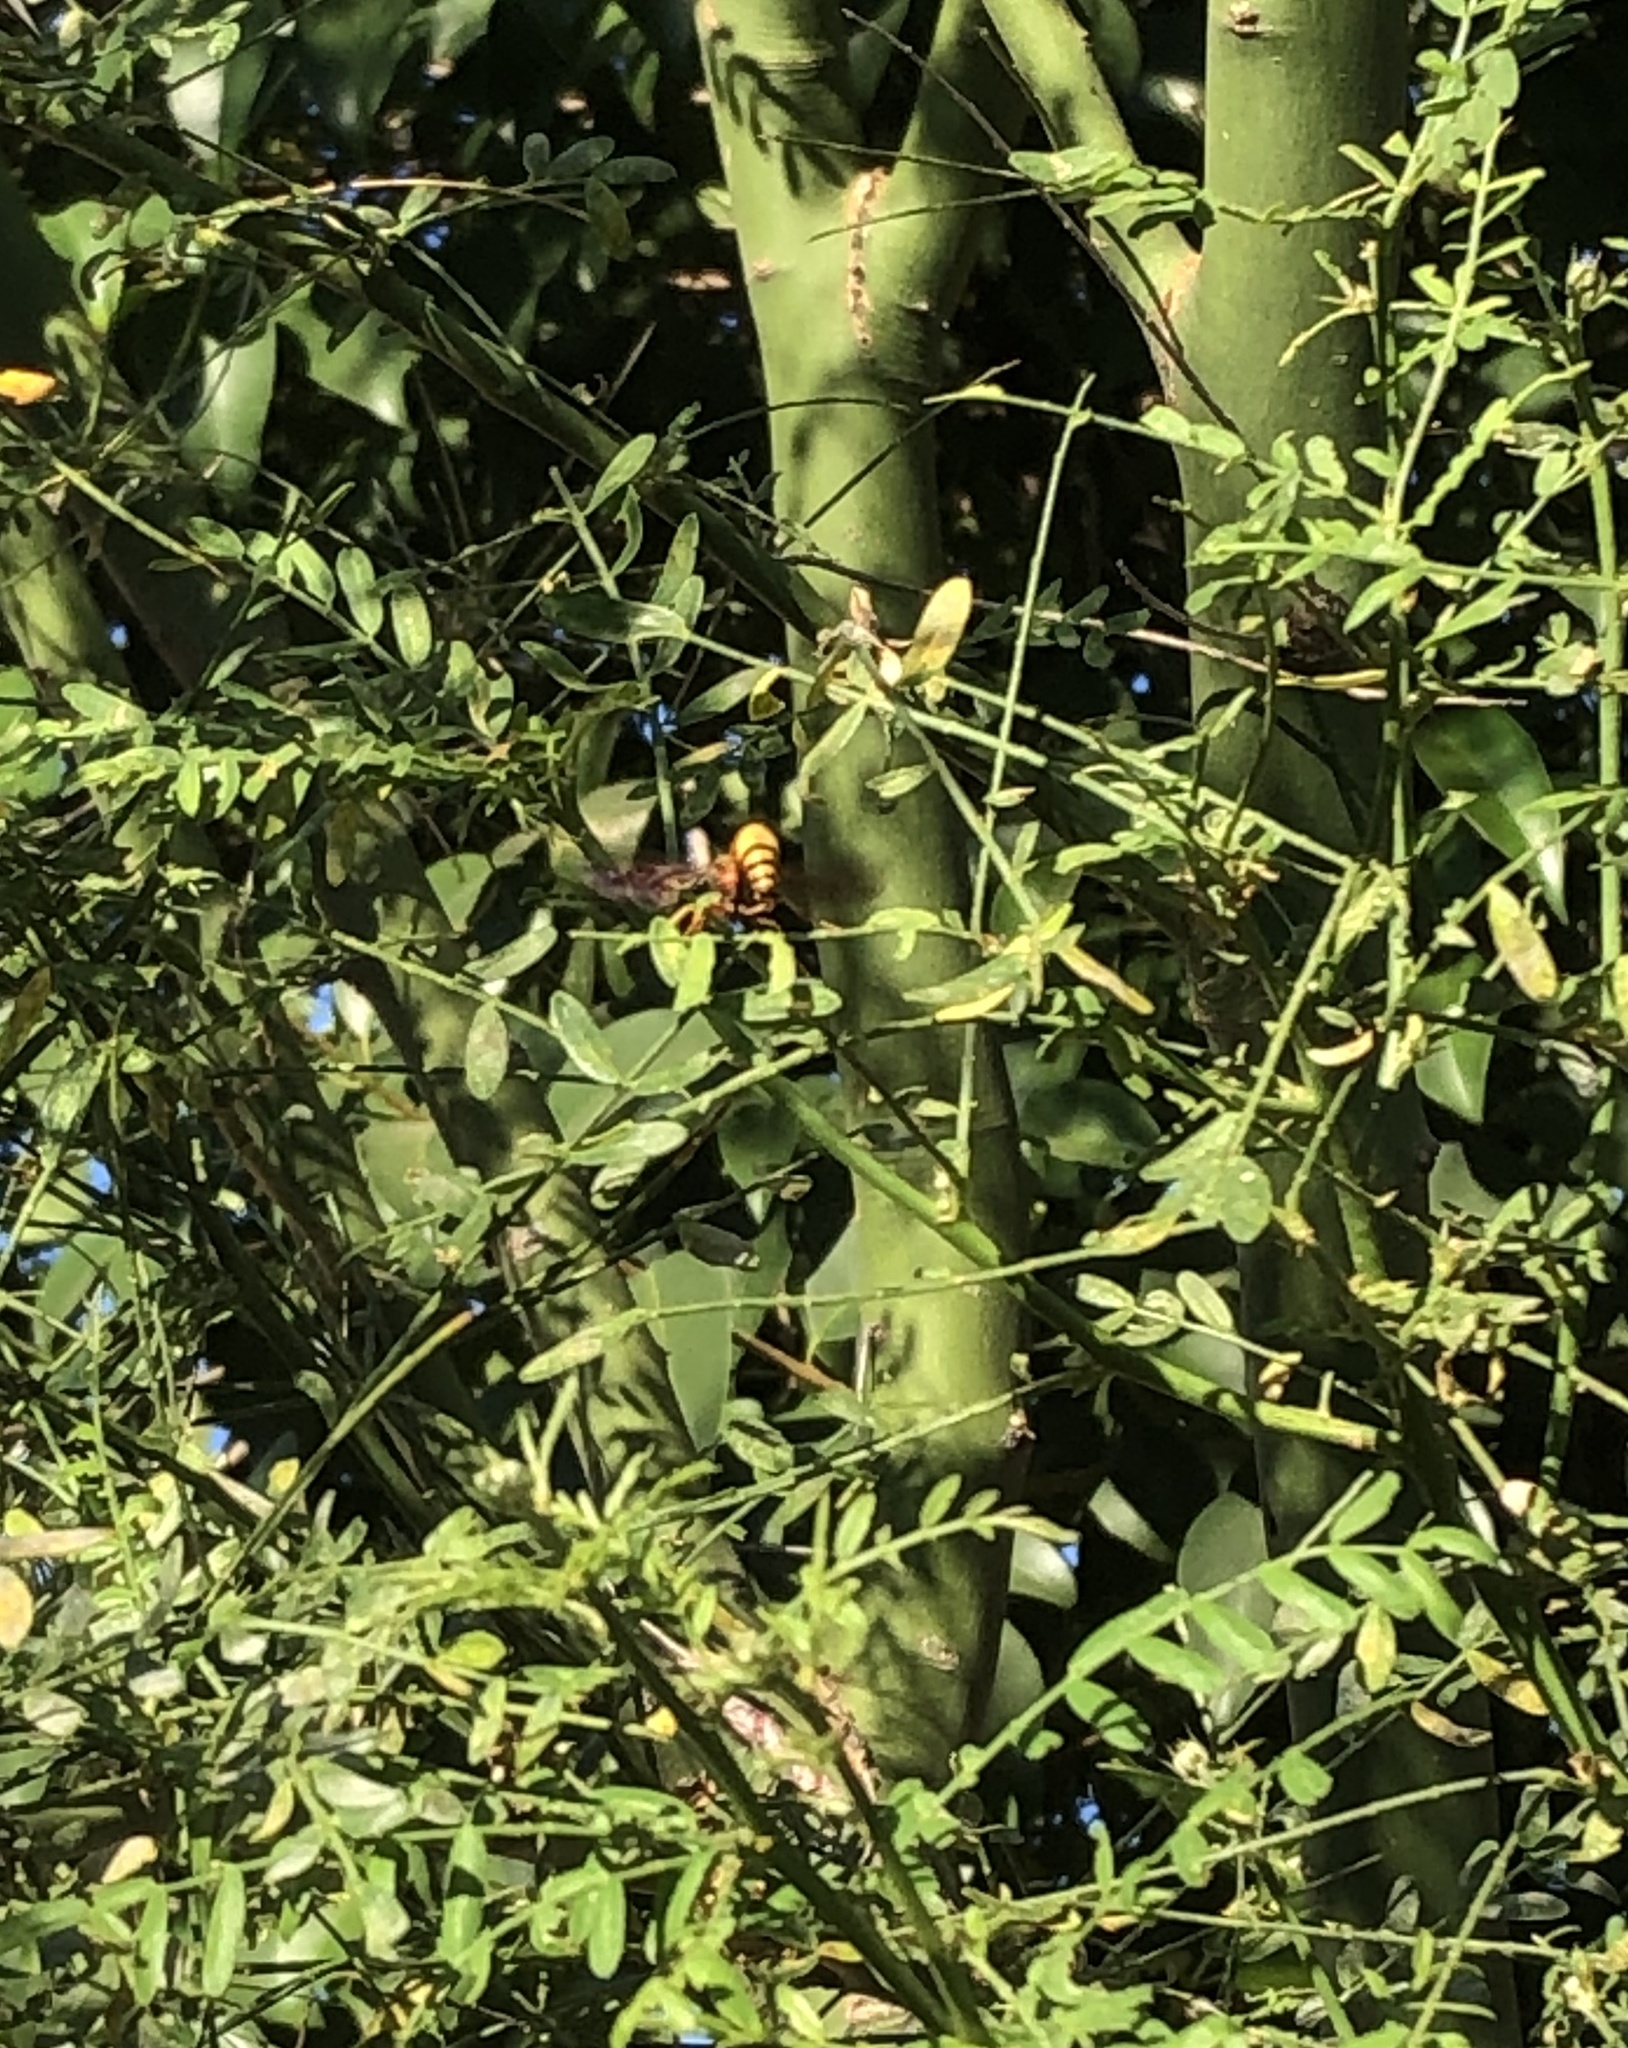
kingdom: Animalia
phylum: Arthropoda
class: Insecta
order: Hymenoptera
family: Eumenidae
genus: Polistes
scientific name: Polistes exclamans
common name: Paper wasp
